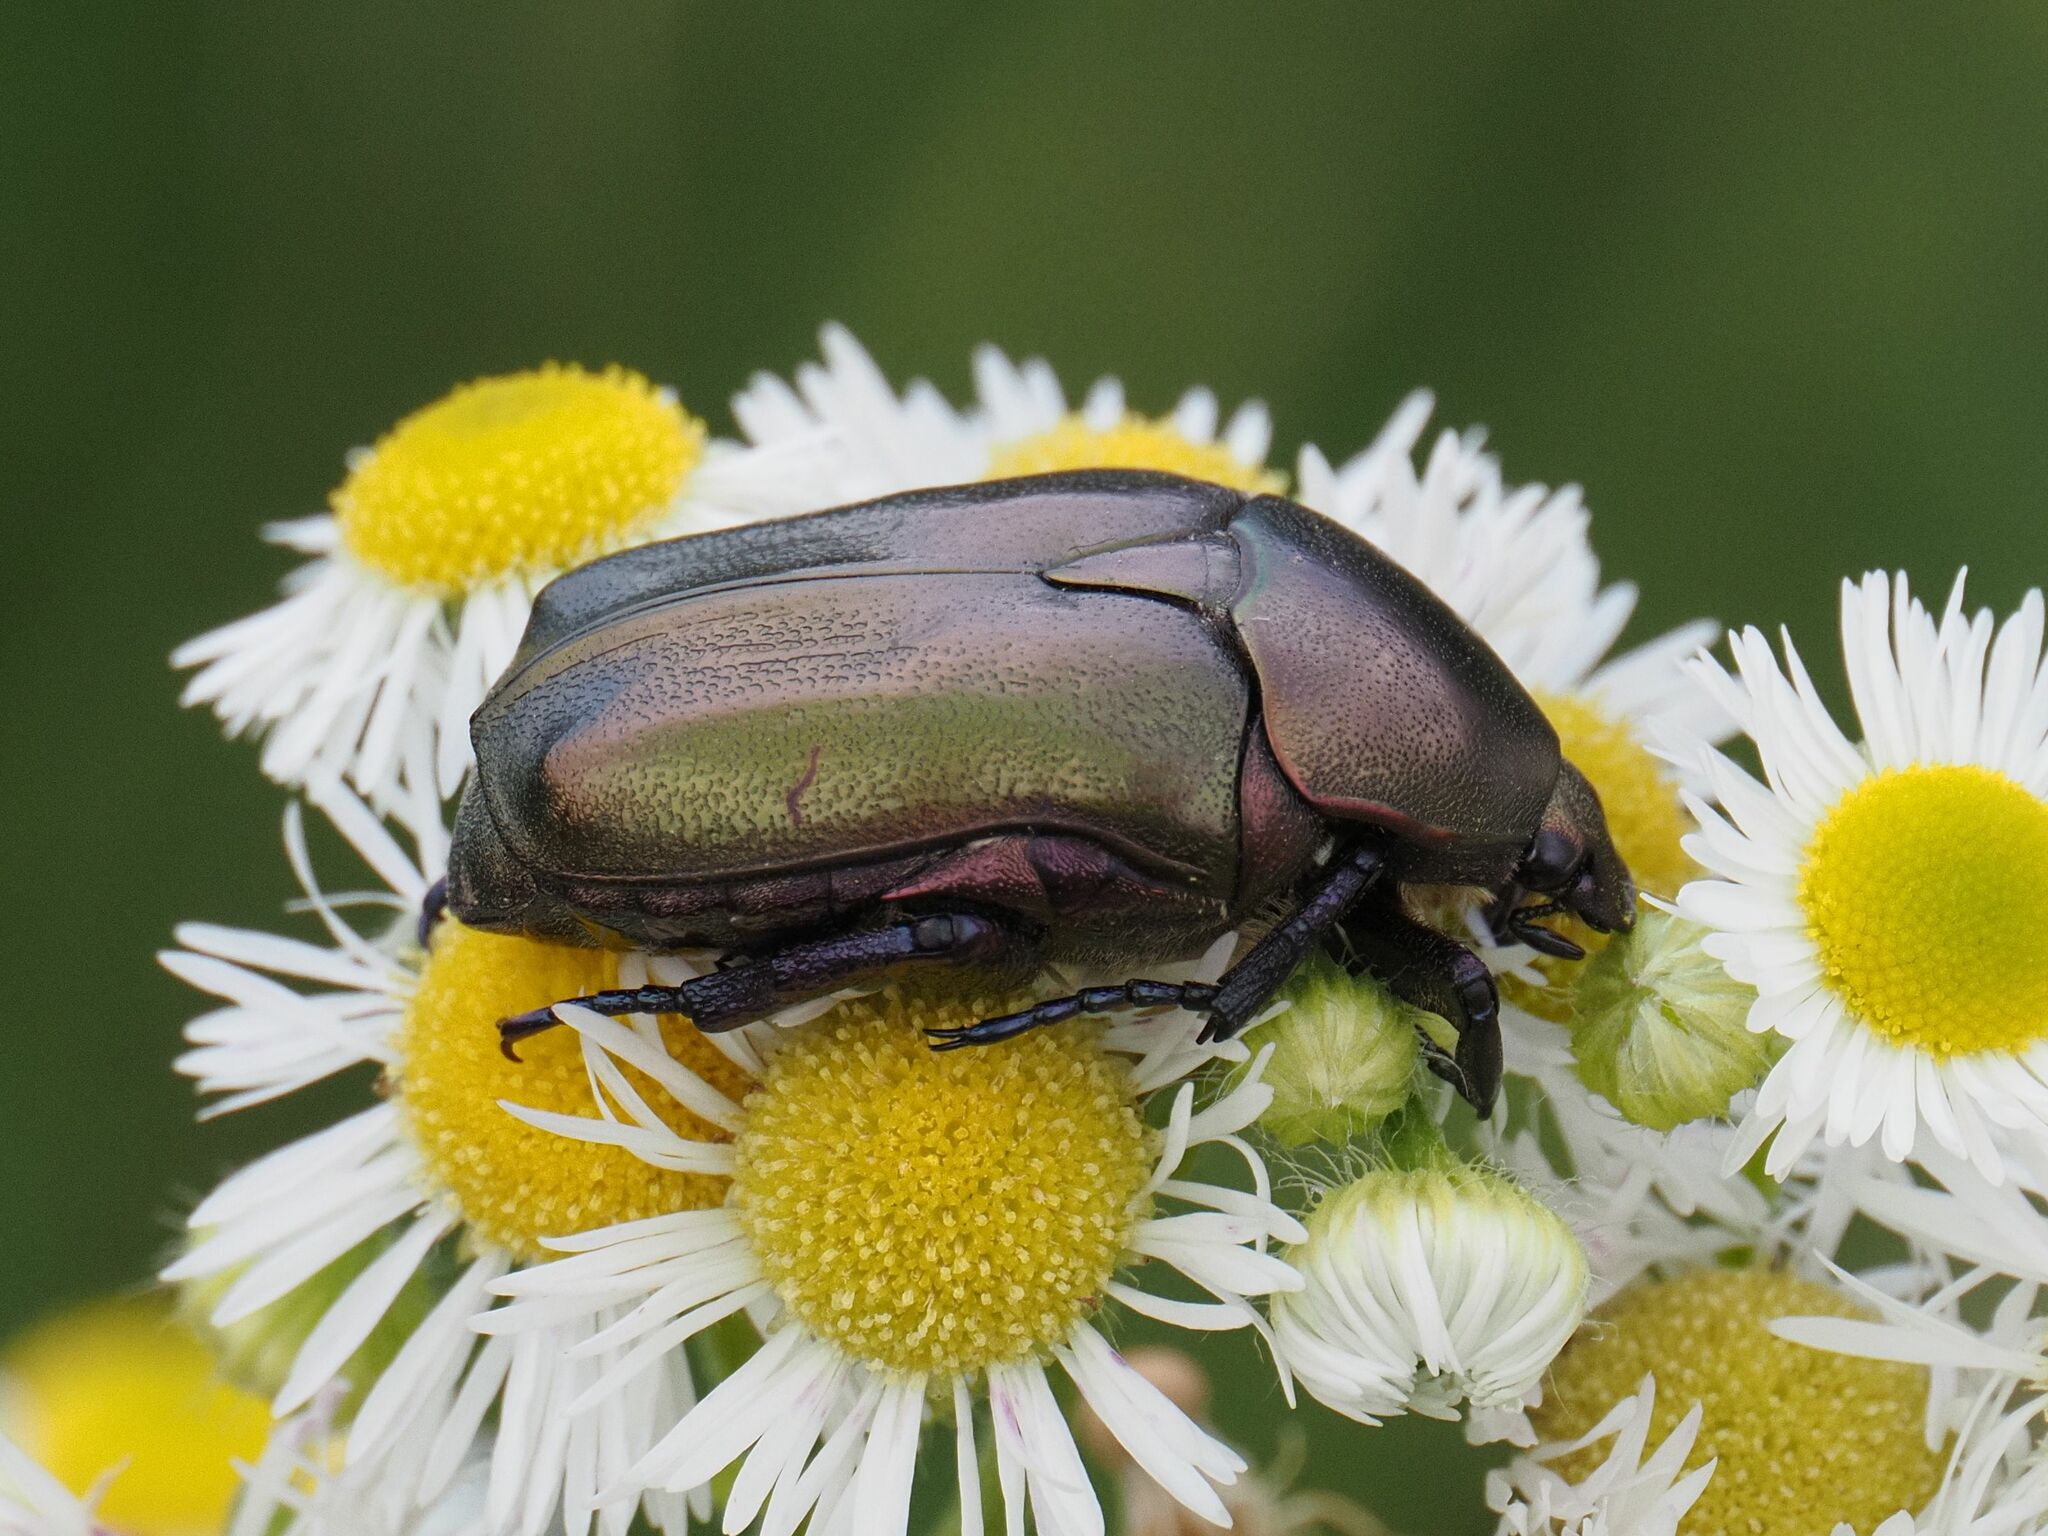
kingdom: Animalia
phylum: Arthropoda
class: Insecta
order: Coleoptera
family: Scarabaeidae
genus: Protaetia
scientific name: Protaetia cuprea
